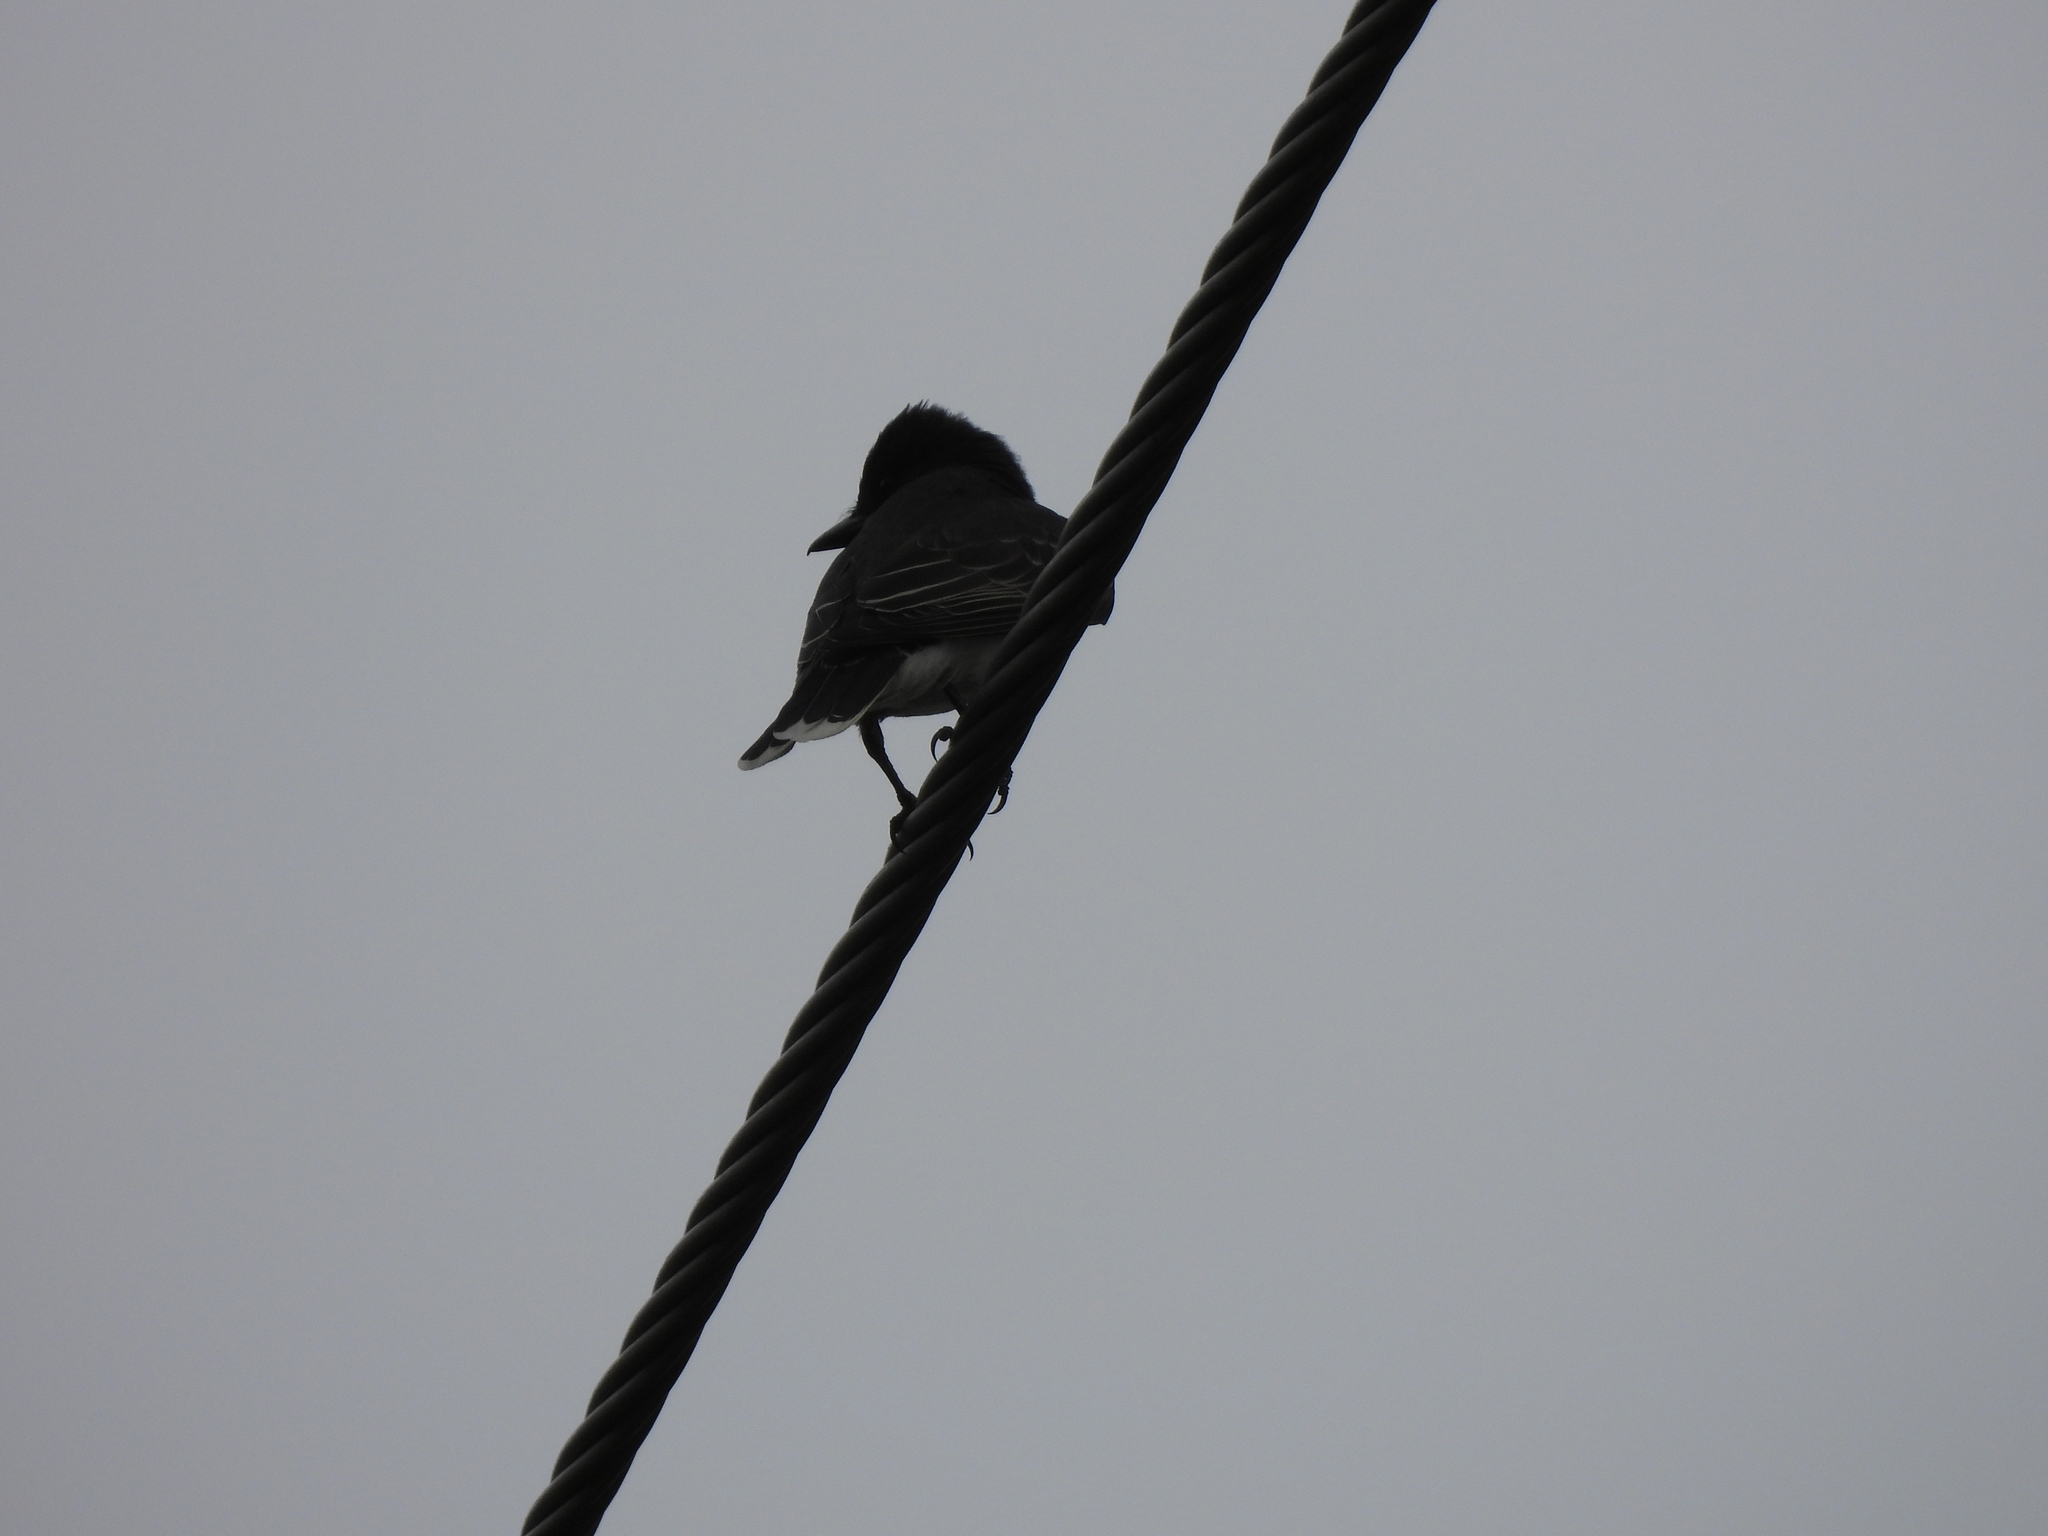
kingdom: Animalia
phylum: Chordata
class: Aves
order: Passeriformes
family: Tyrannidae
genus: Tyrannus
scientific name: Tyrannus tyrannus
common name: Eastern kingbird
